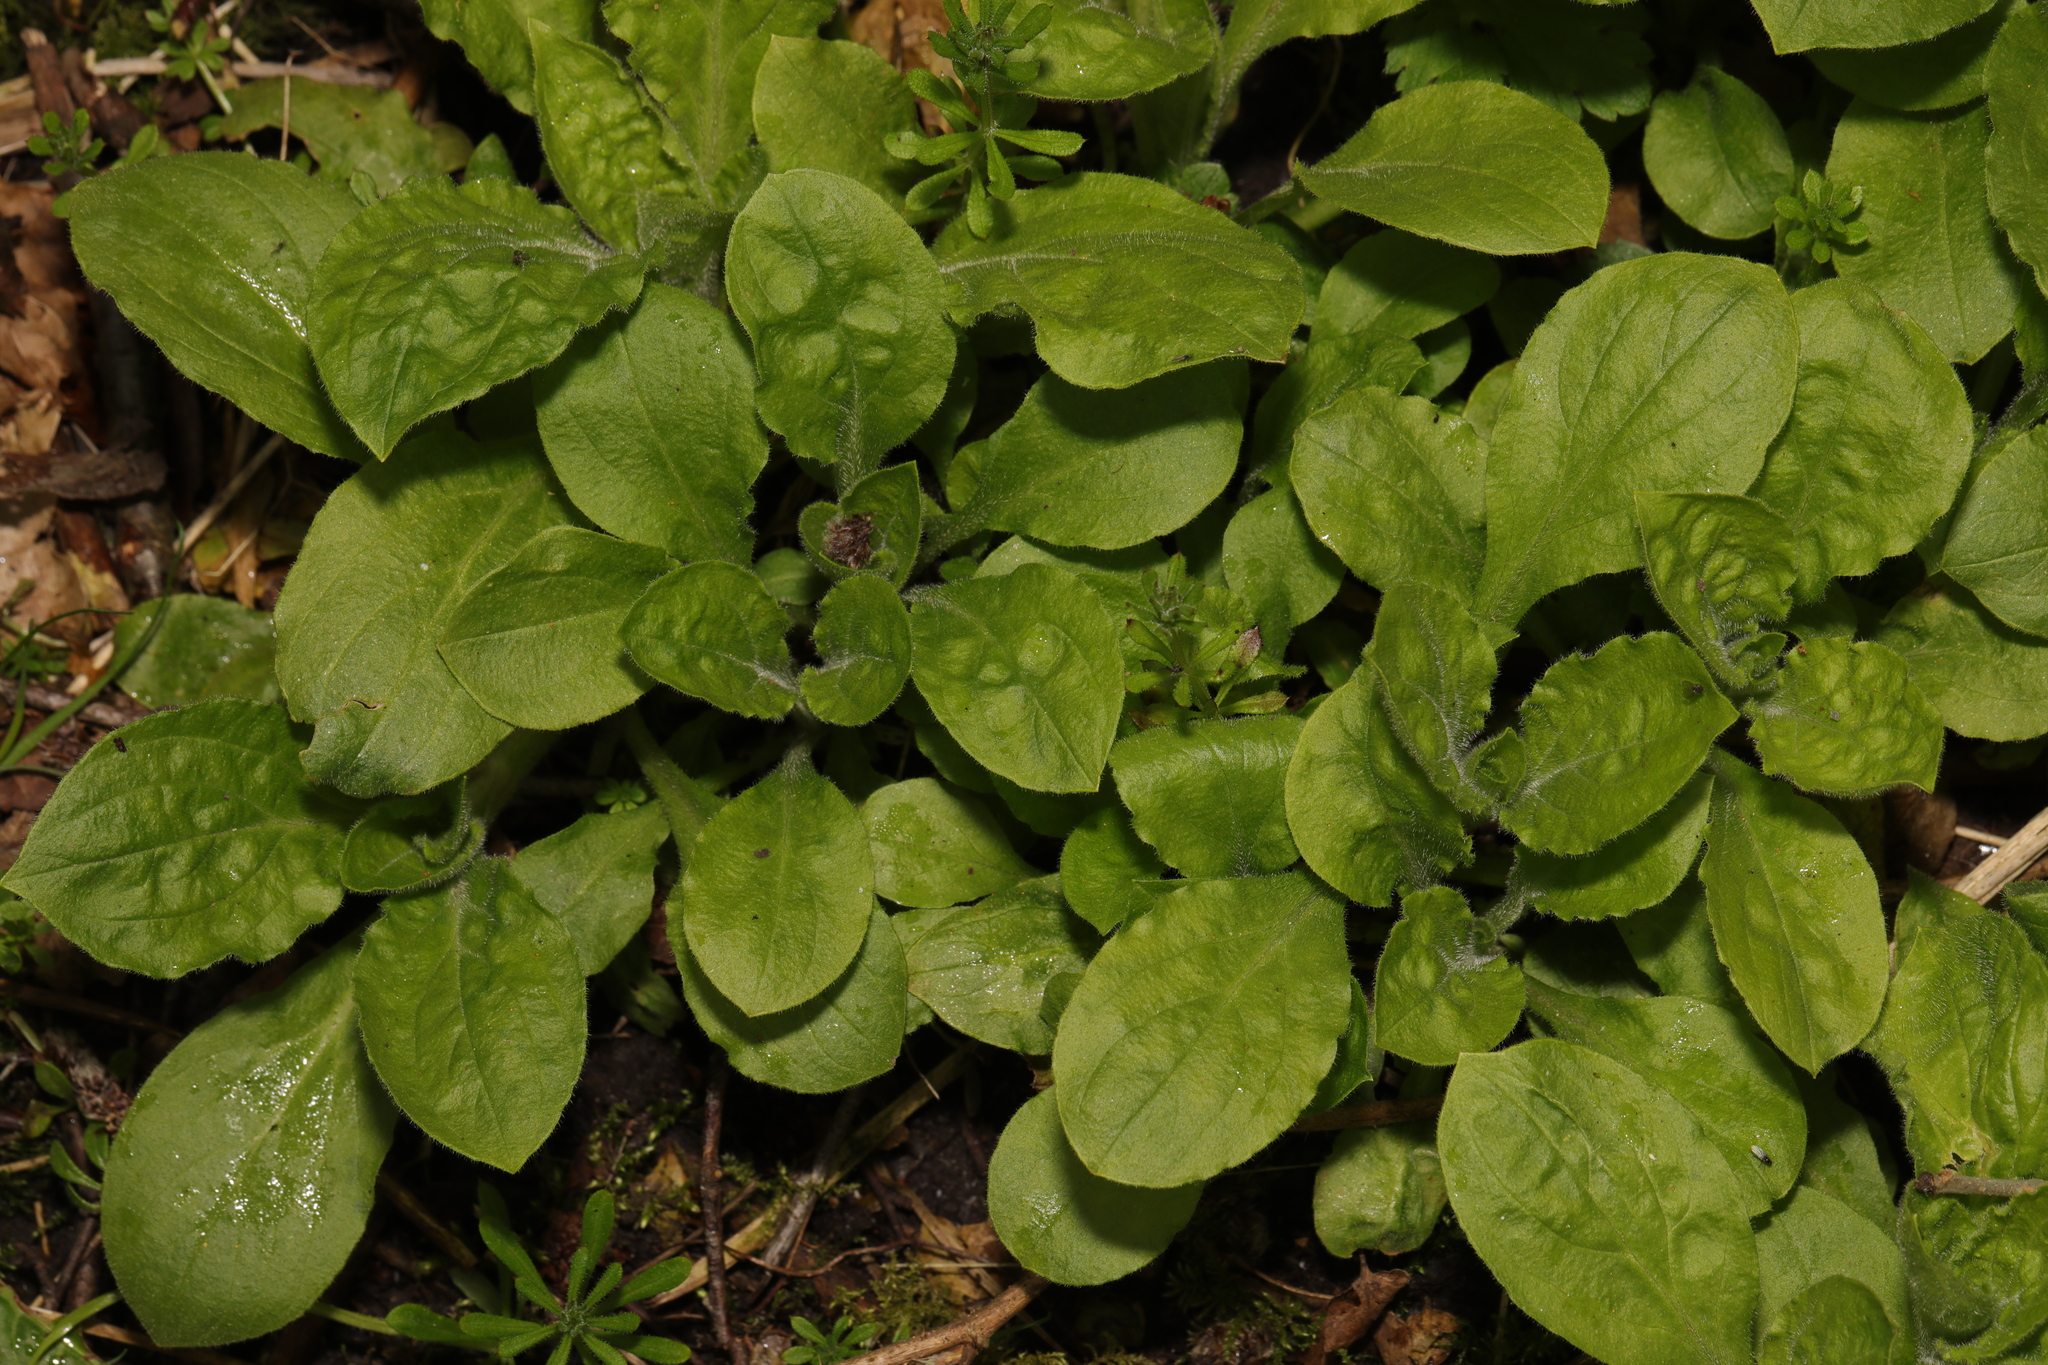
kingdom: Plantae
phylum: Tracheophyta
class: Magnoliopsida
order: Caryophyllales
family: Caryophyllaceae
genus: Silene
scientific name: Silene dioica
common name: Red campion
